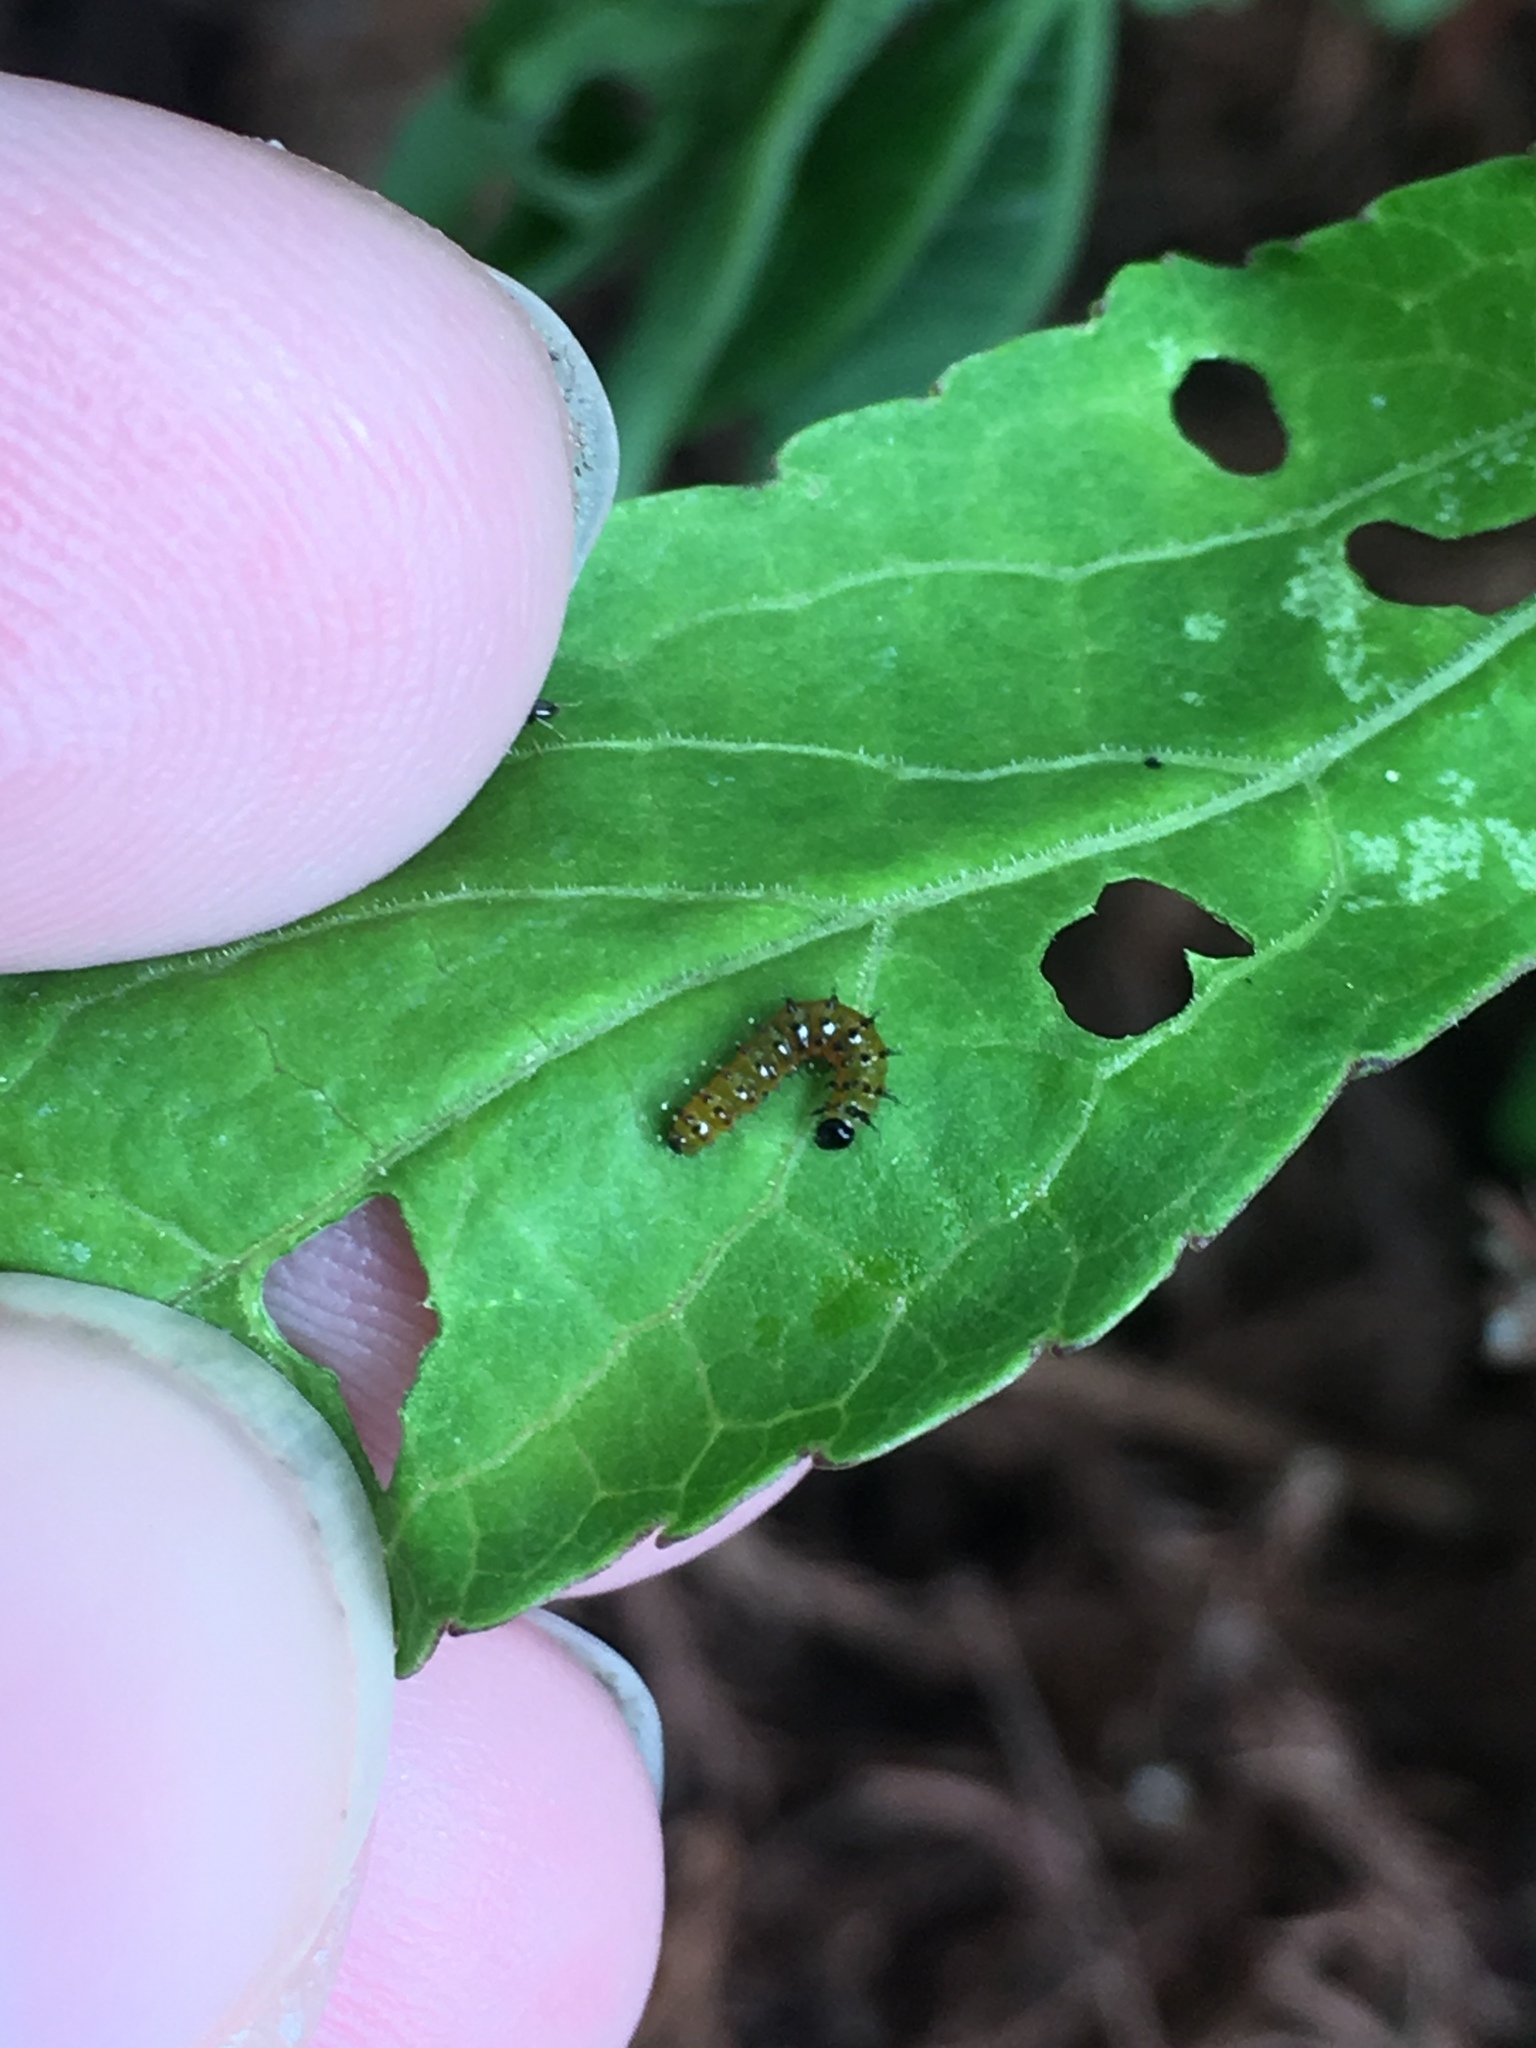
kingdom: Animalia
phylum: Arthropoda
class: Insecta
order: Lepidoptera
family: Nymphalidae
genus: Dione
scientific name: Dione vanillae
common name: Gulf fritillary
